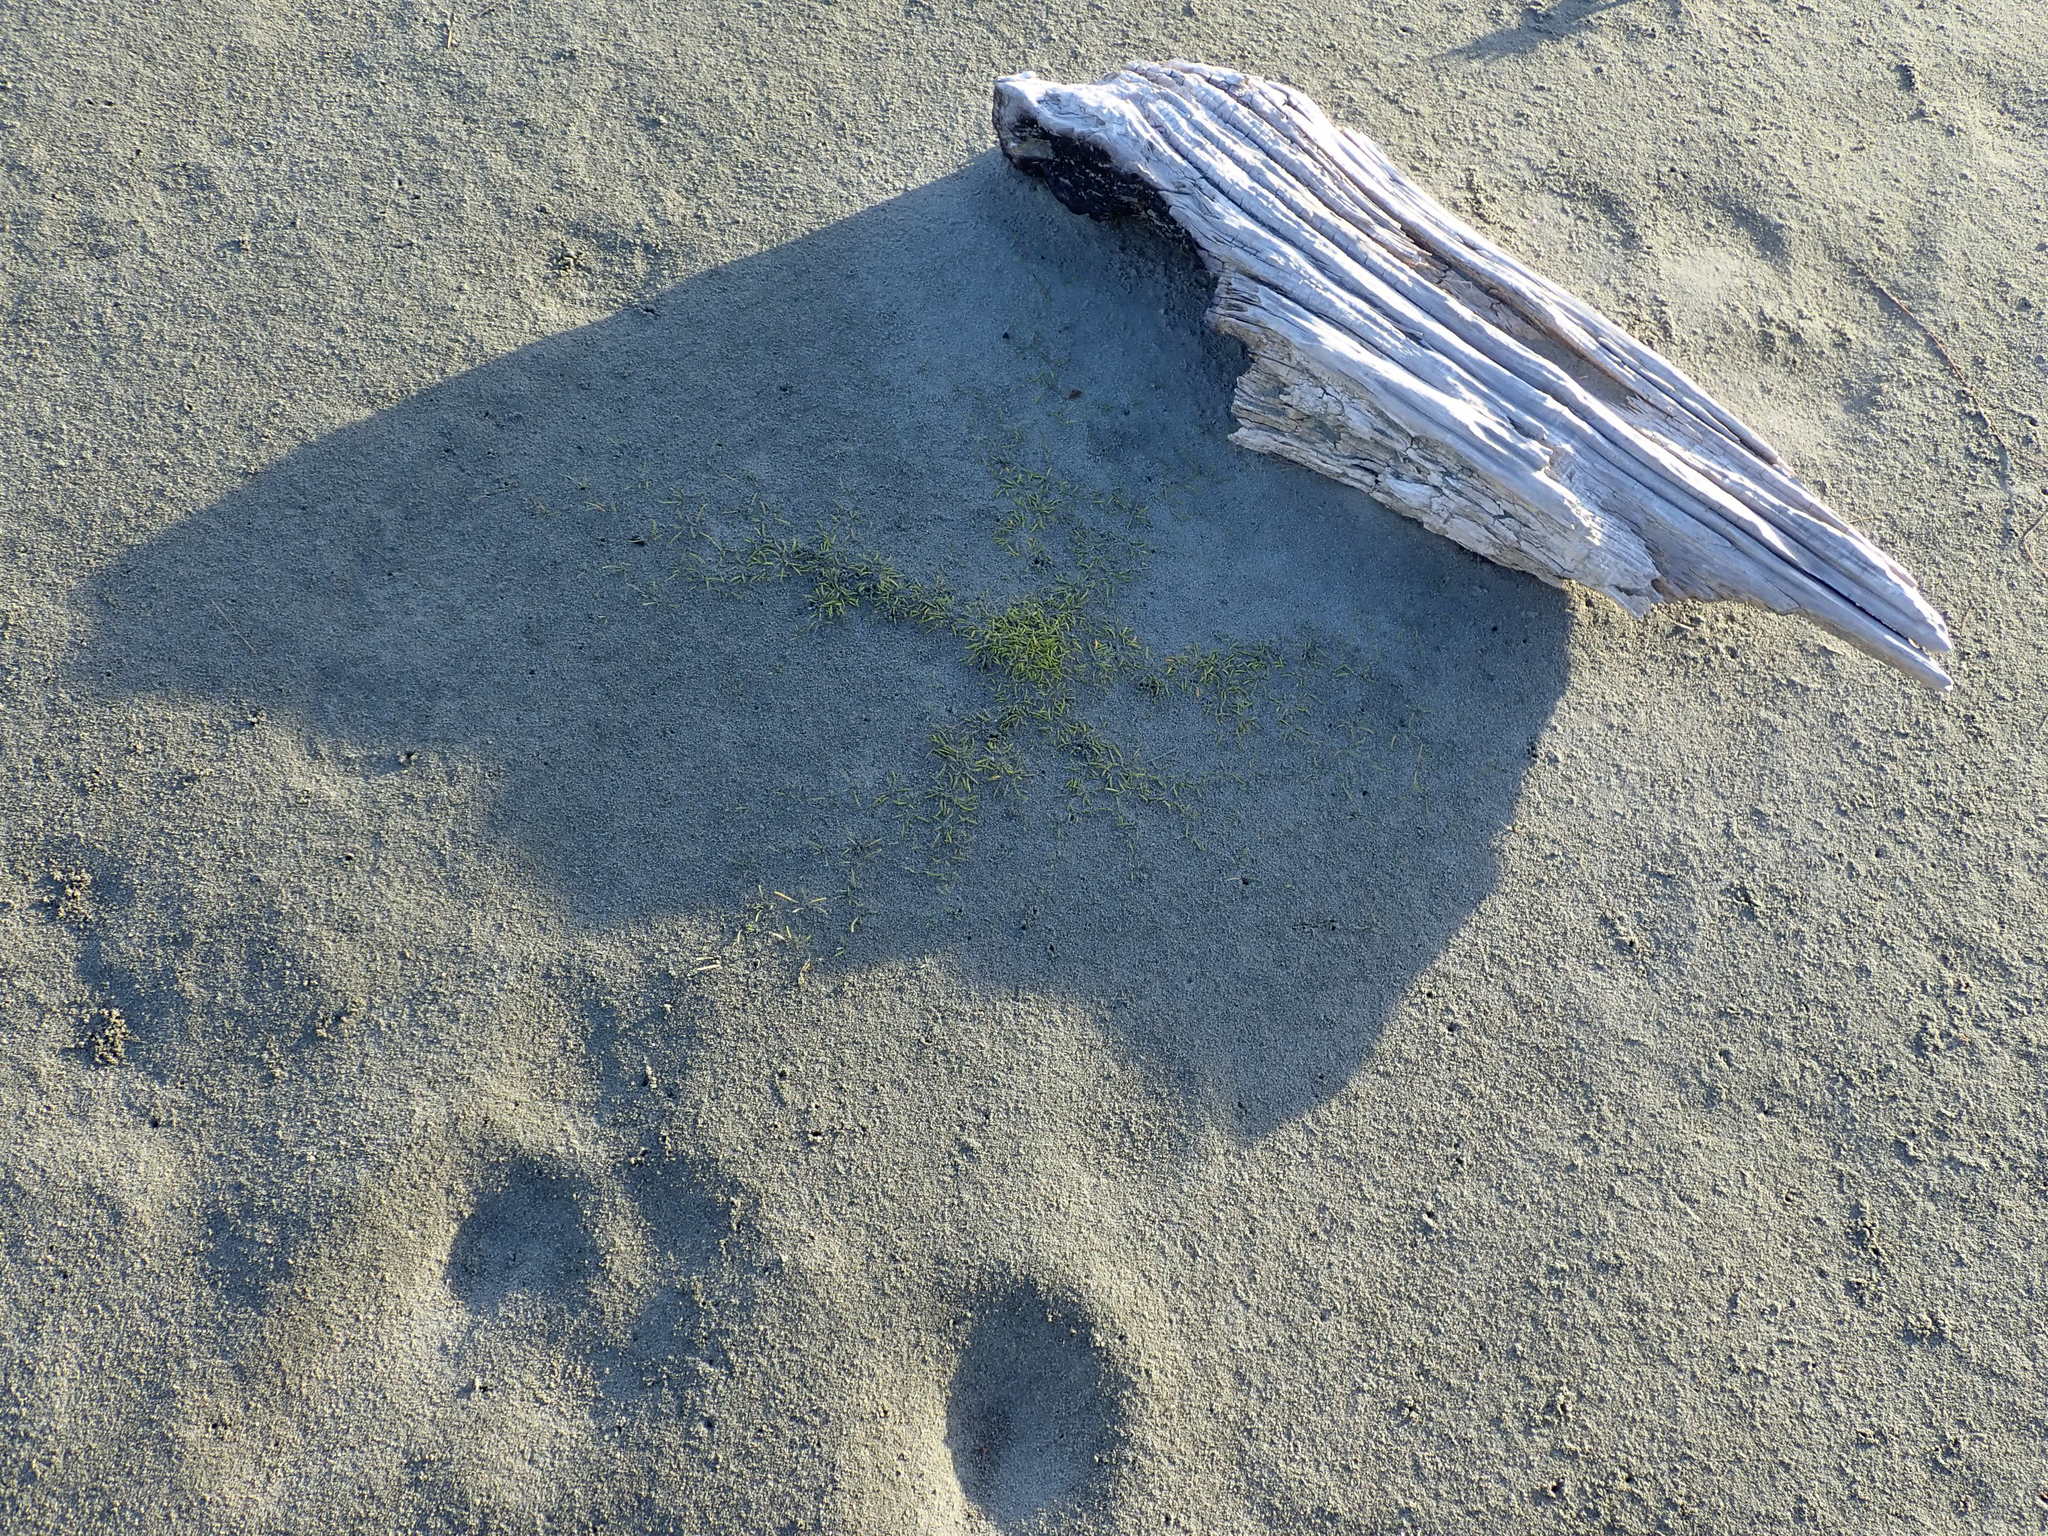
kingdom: Plantae
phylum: Tracheophyta
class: Magnoliopsida
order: Apiales
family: Apiaceae
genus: Lilaeopsis
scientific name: Lilaeopsis novae-zelandiae
